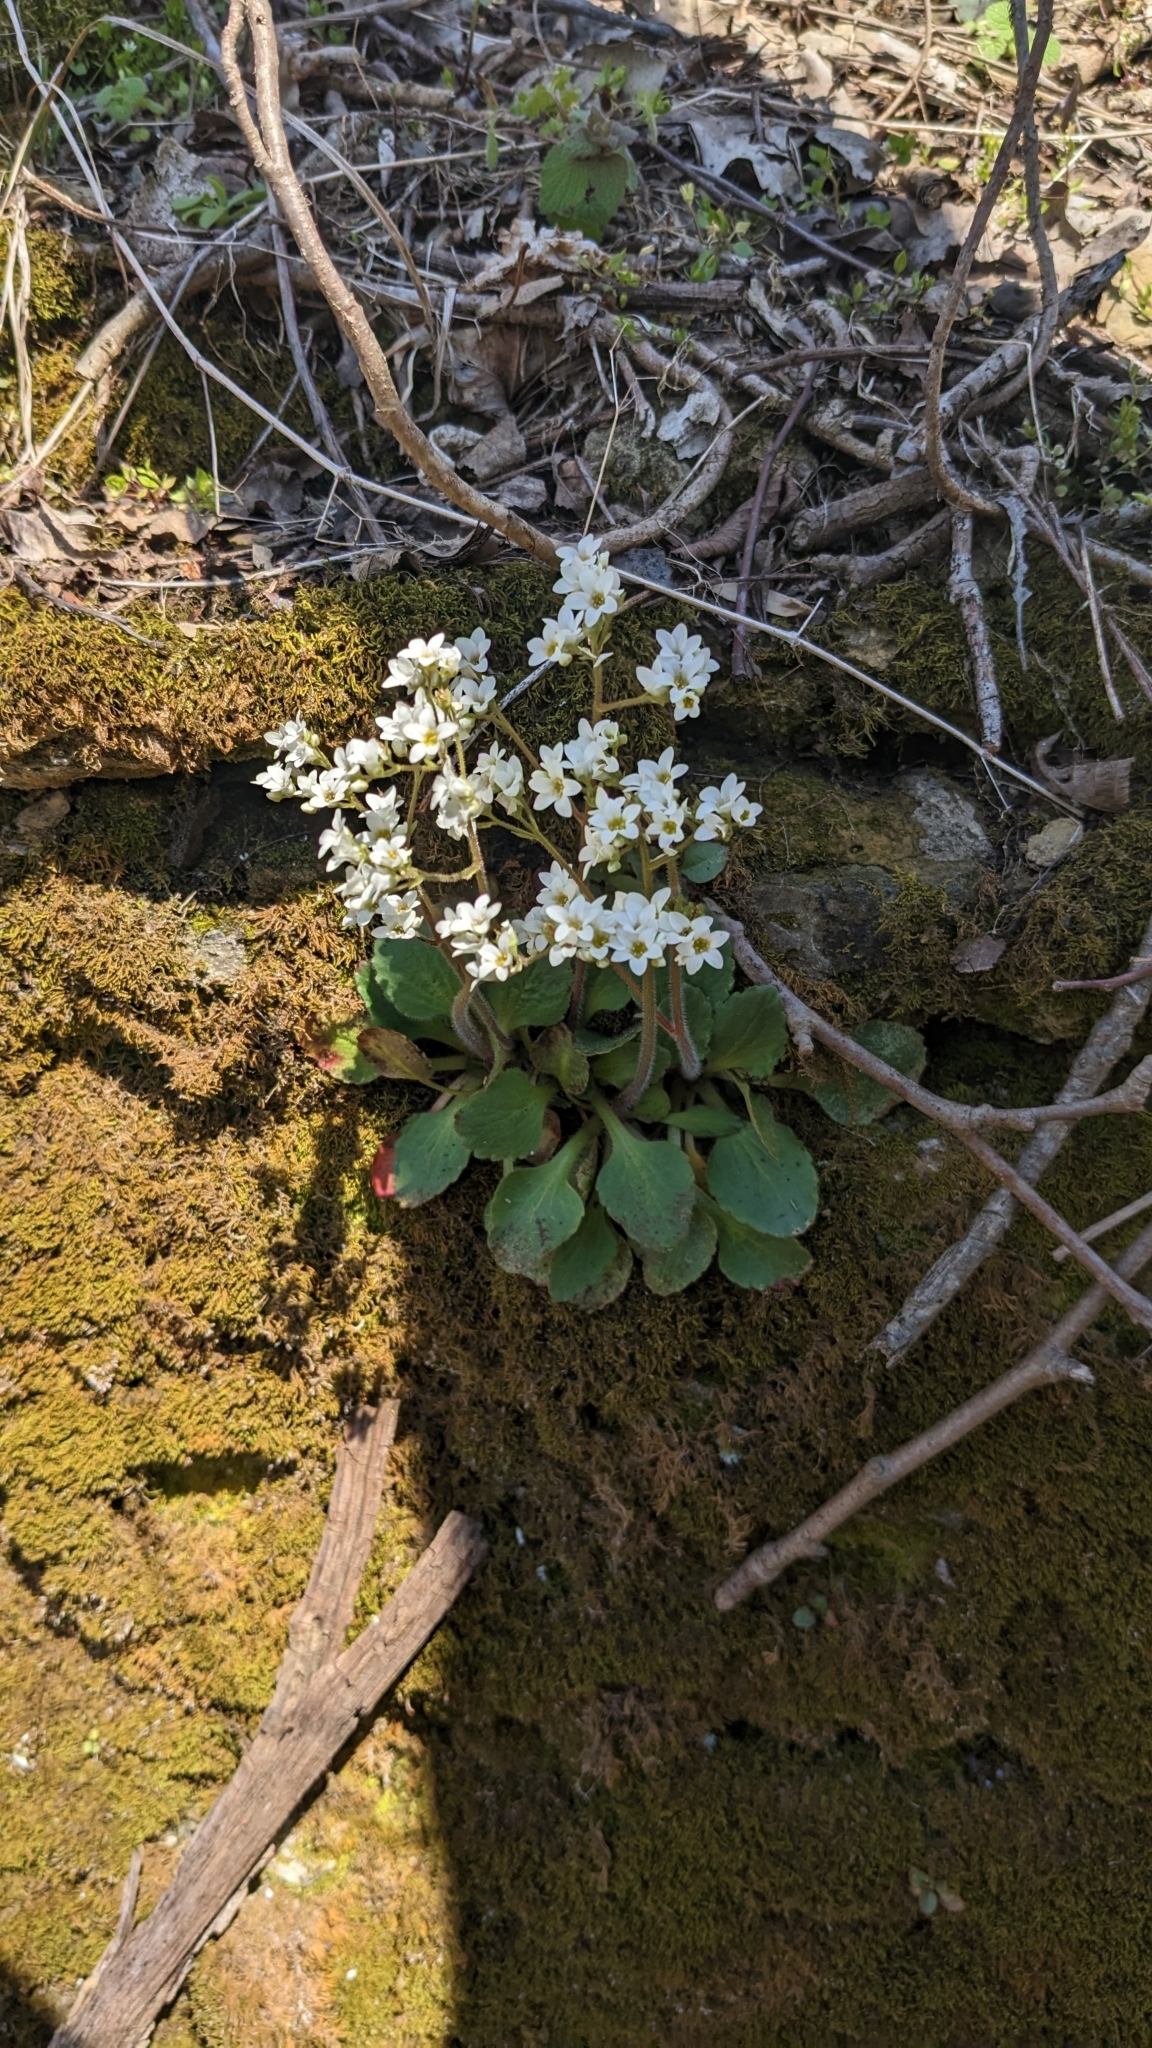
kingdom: Plantae
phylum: Tracheophyta
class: Magnoliopsida
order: Saxifragales
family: Saxifragaceae
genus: Micranthes
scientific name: Micranthes virginiensis
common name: Early saxifrage
